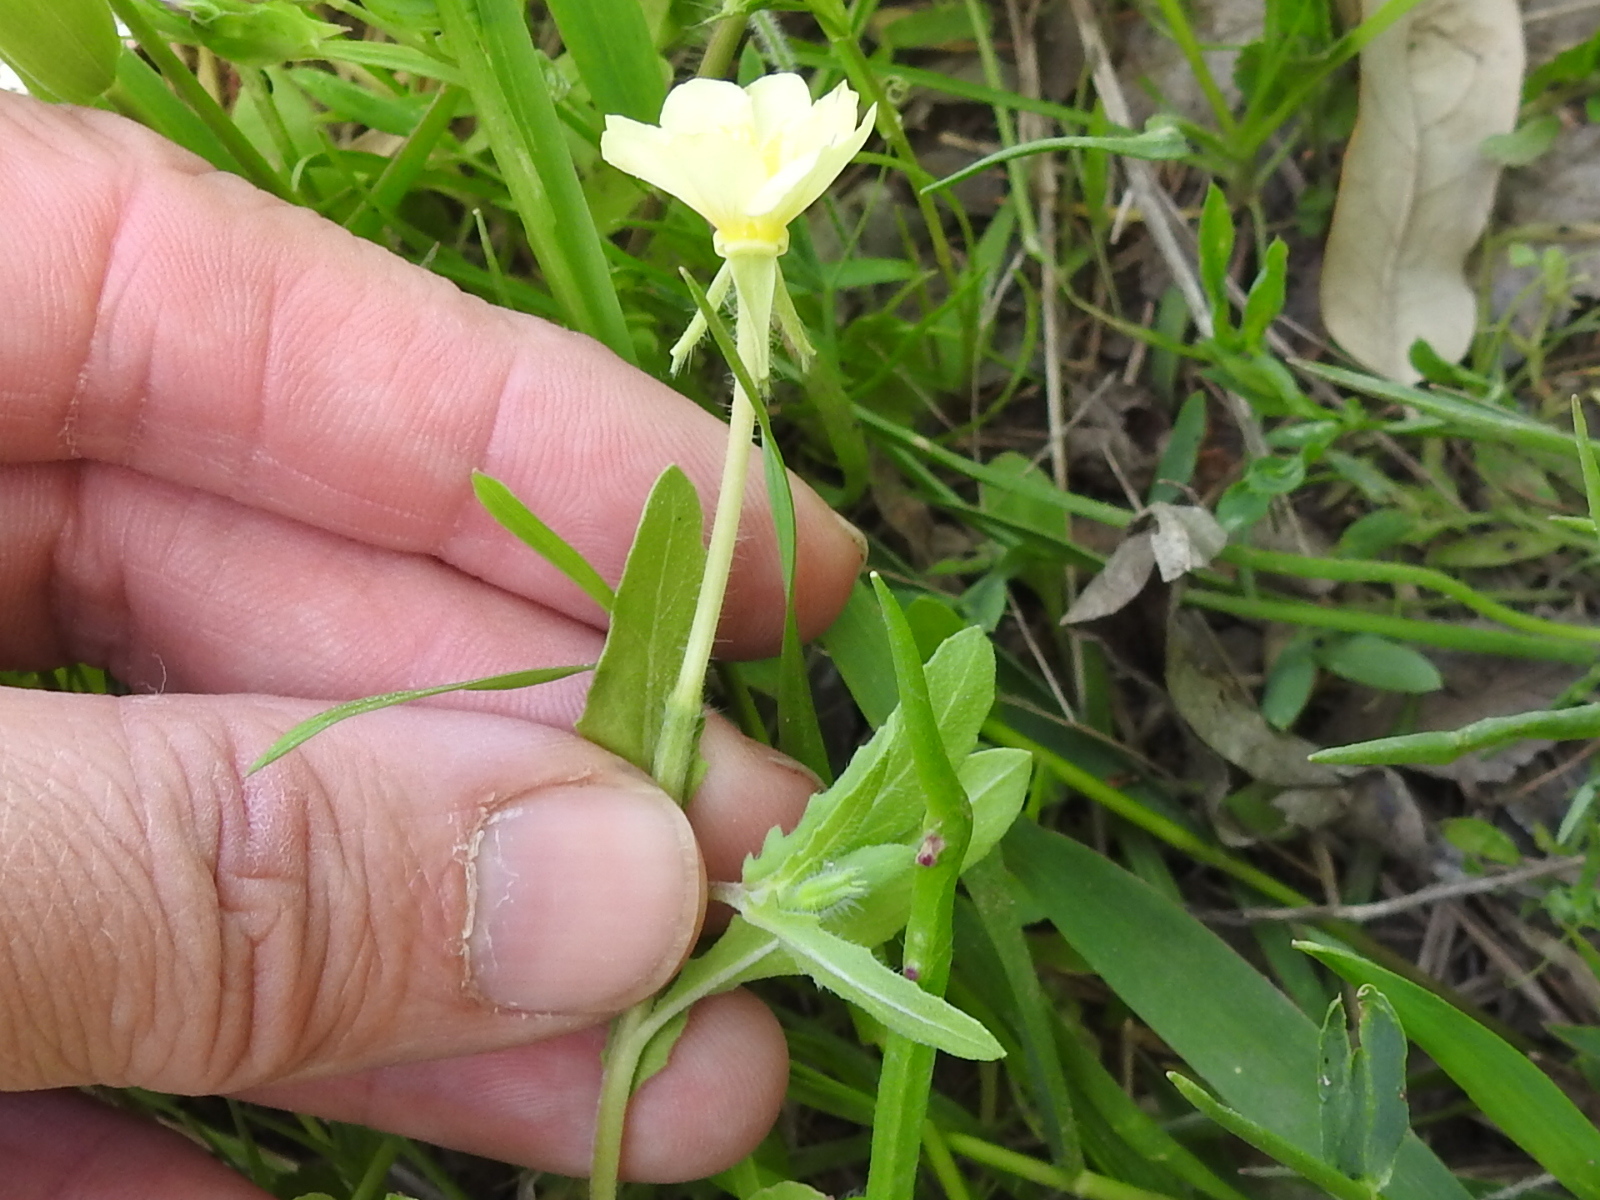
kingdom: Plantae
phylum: Tracheophyta
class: Magnoliopsida
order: Myrtales
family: Onagraceae
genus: Oenothera
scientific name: Oenothera laciniata
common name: Cut-leaved evening-primrose
